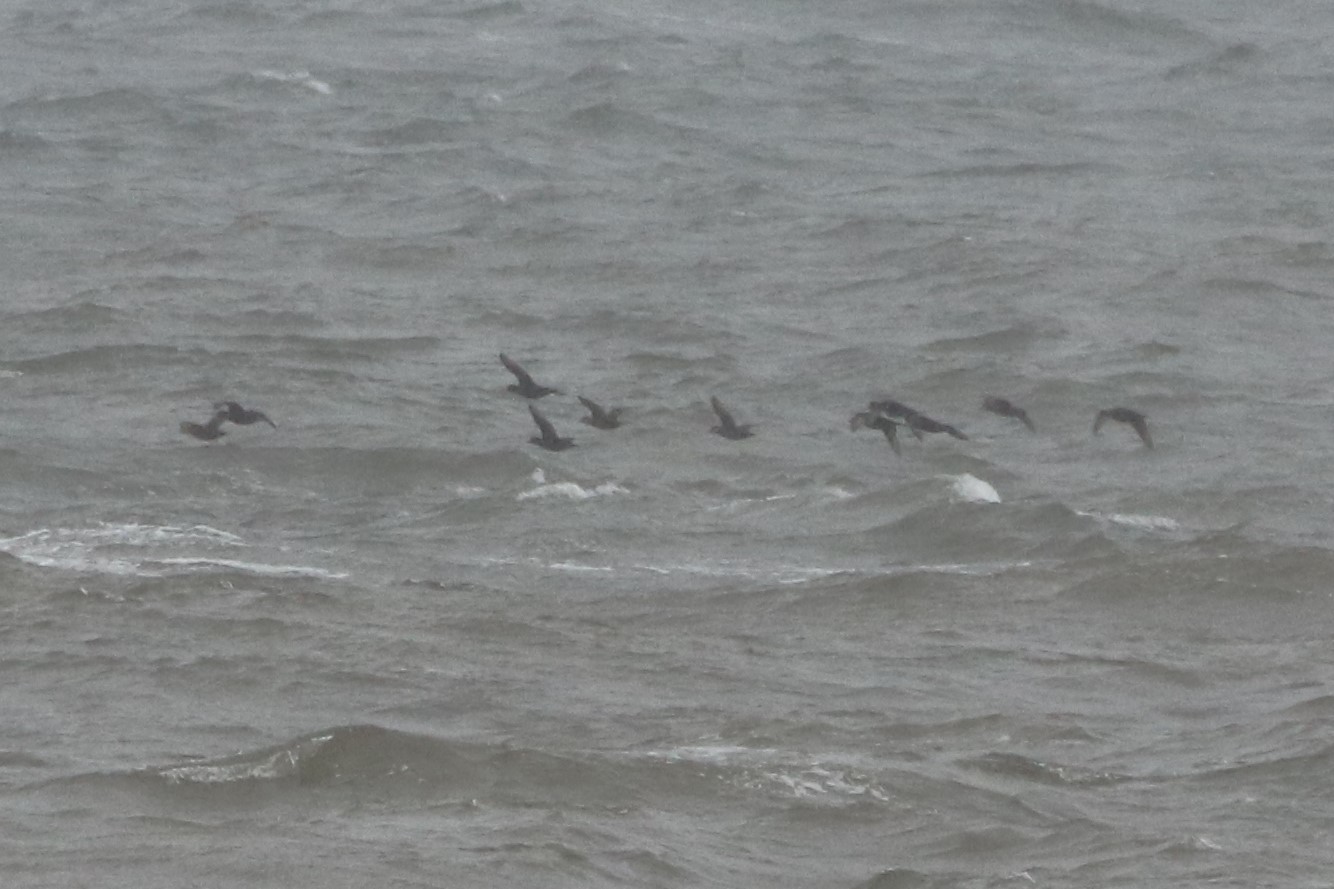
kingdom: Animalia
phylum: Chordata
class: Aves
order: Anseriformes
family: Anatidae
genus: Melanitta
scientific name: Melanitta americana
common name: Black scoter
